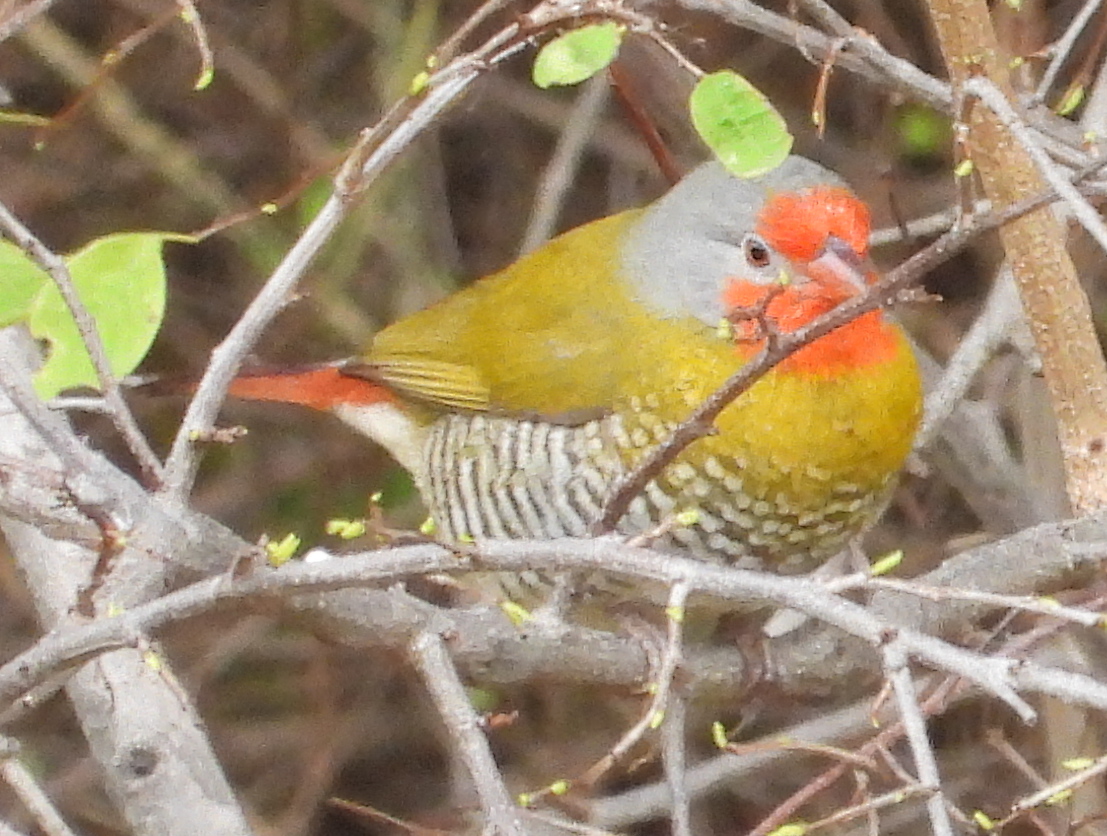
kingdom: Animalia
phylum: Chordata
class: Aves
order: Passeriformes
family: Estrildidae
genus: Pytilia
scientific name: Pytilia melba
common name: Green-winged pytilia
